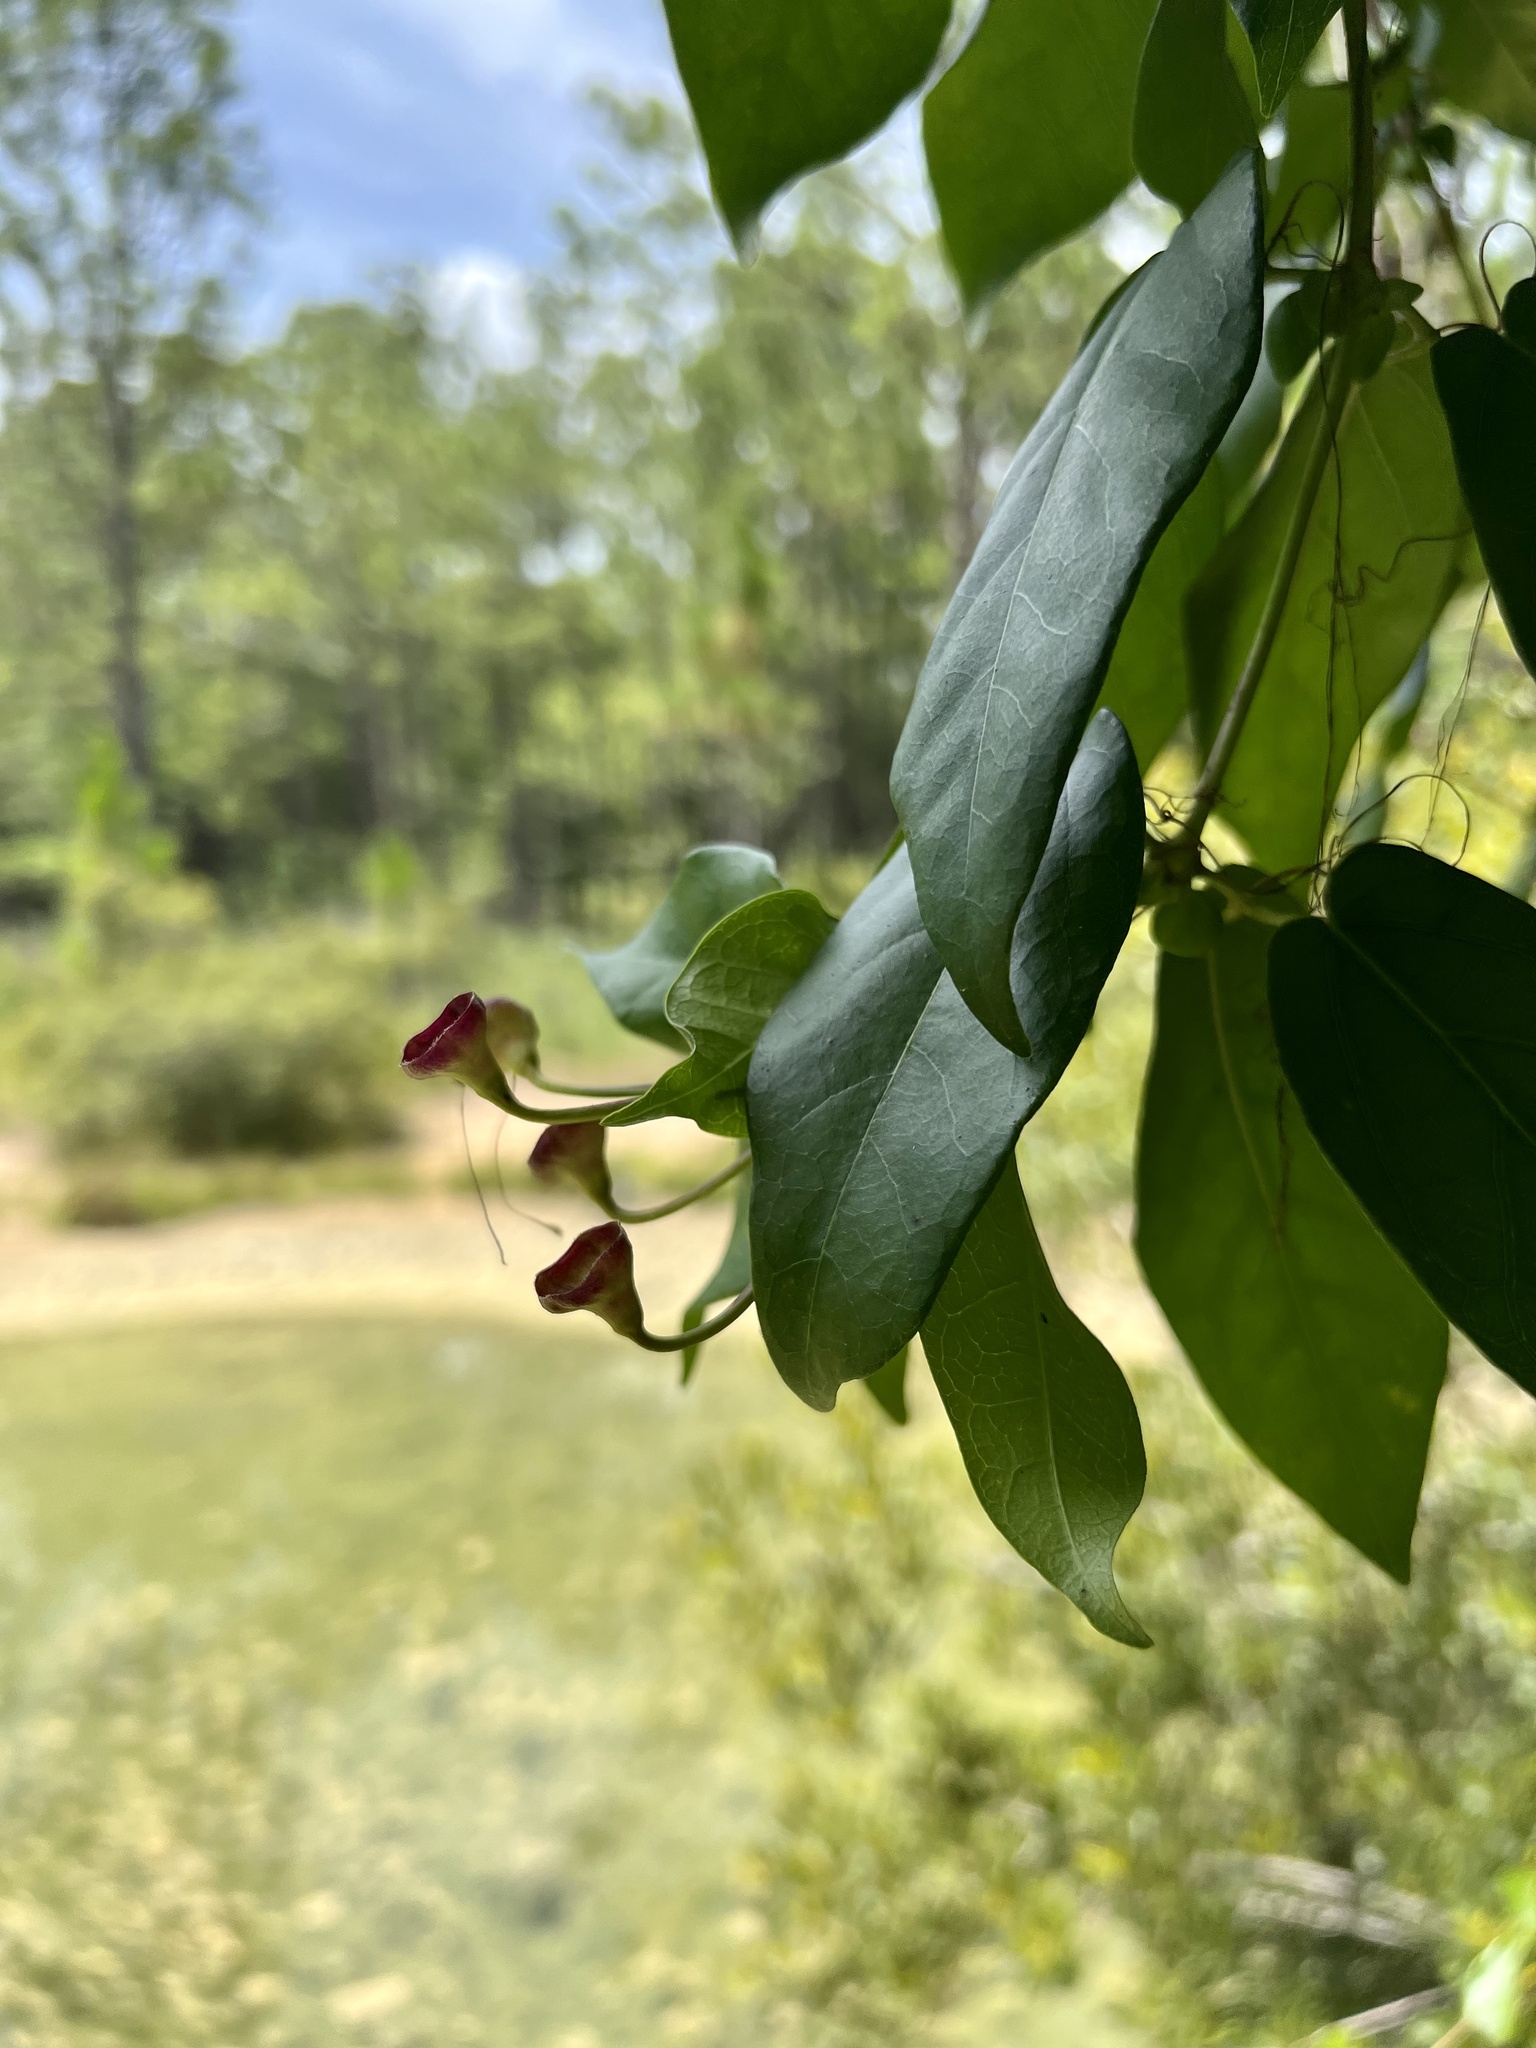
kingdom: Plantae
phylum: Tracheophyta
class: Magnoliopsida
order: Lamiales
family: Bignoniaceae
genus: Bignonia
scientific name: Bignonia capreolata
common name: Crossvine
